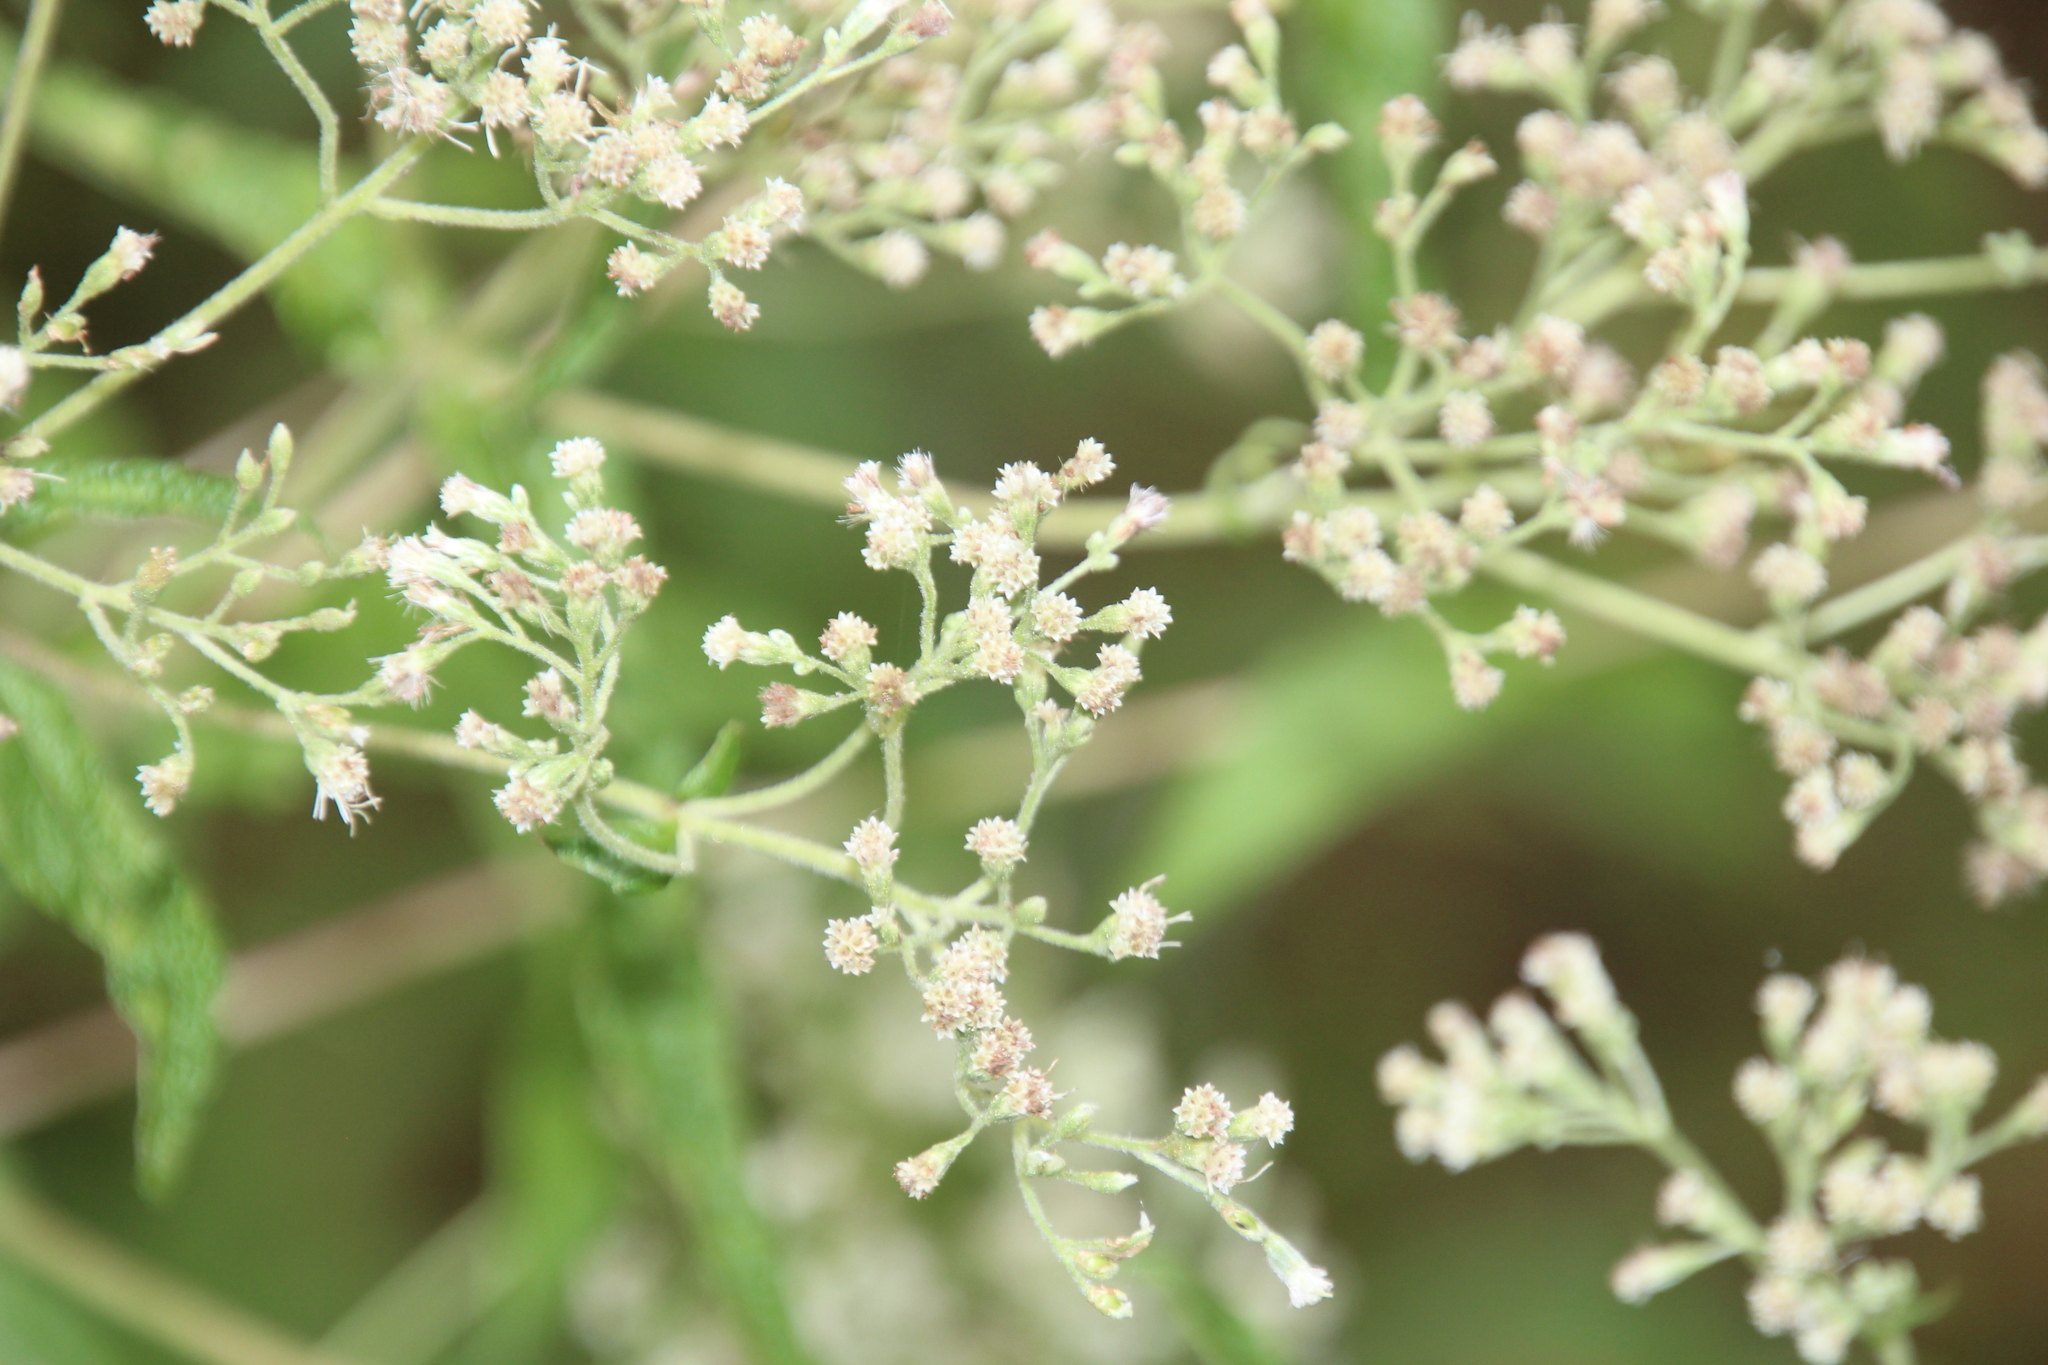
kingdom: Plantae
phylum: Tracheophyta
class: Magnoliopsida
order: Asterales
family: Asteraceae
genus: Eupatorium
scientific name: Eupatorium perfoliatum
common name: Boneset
